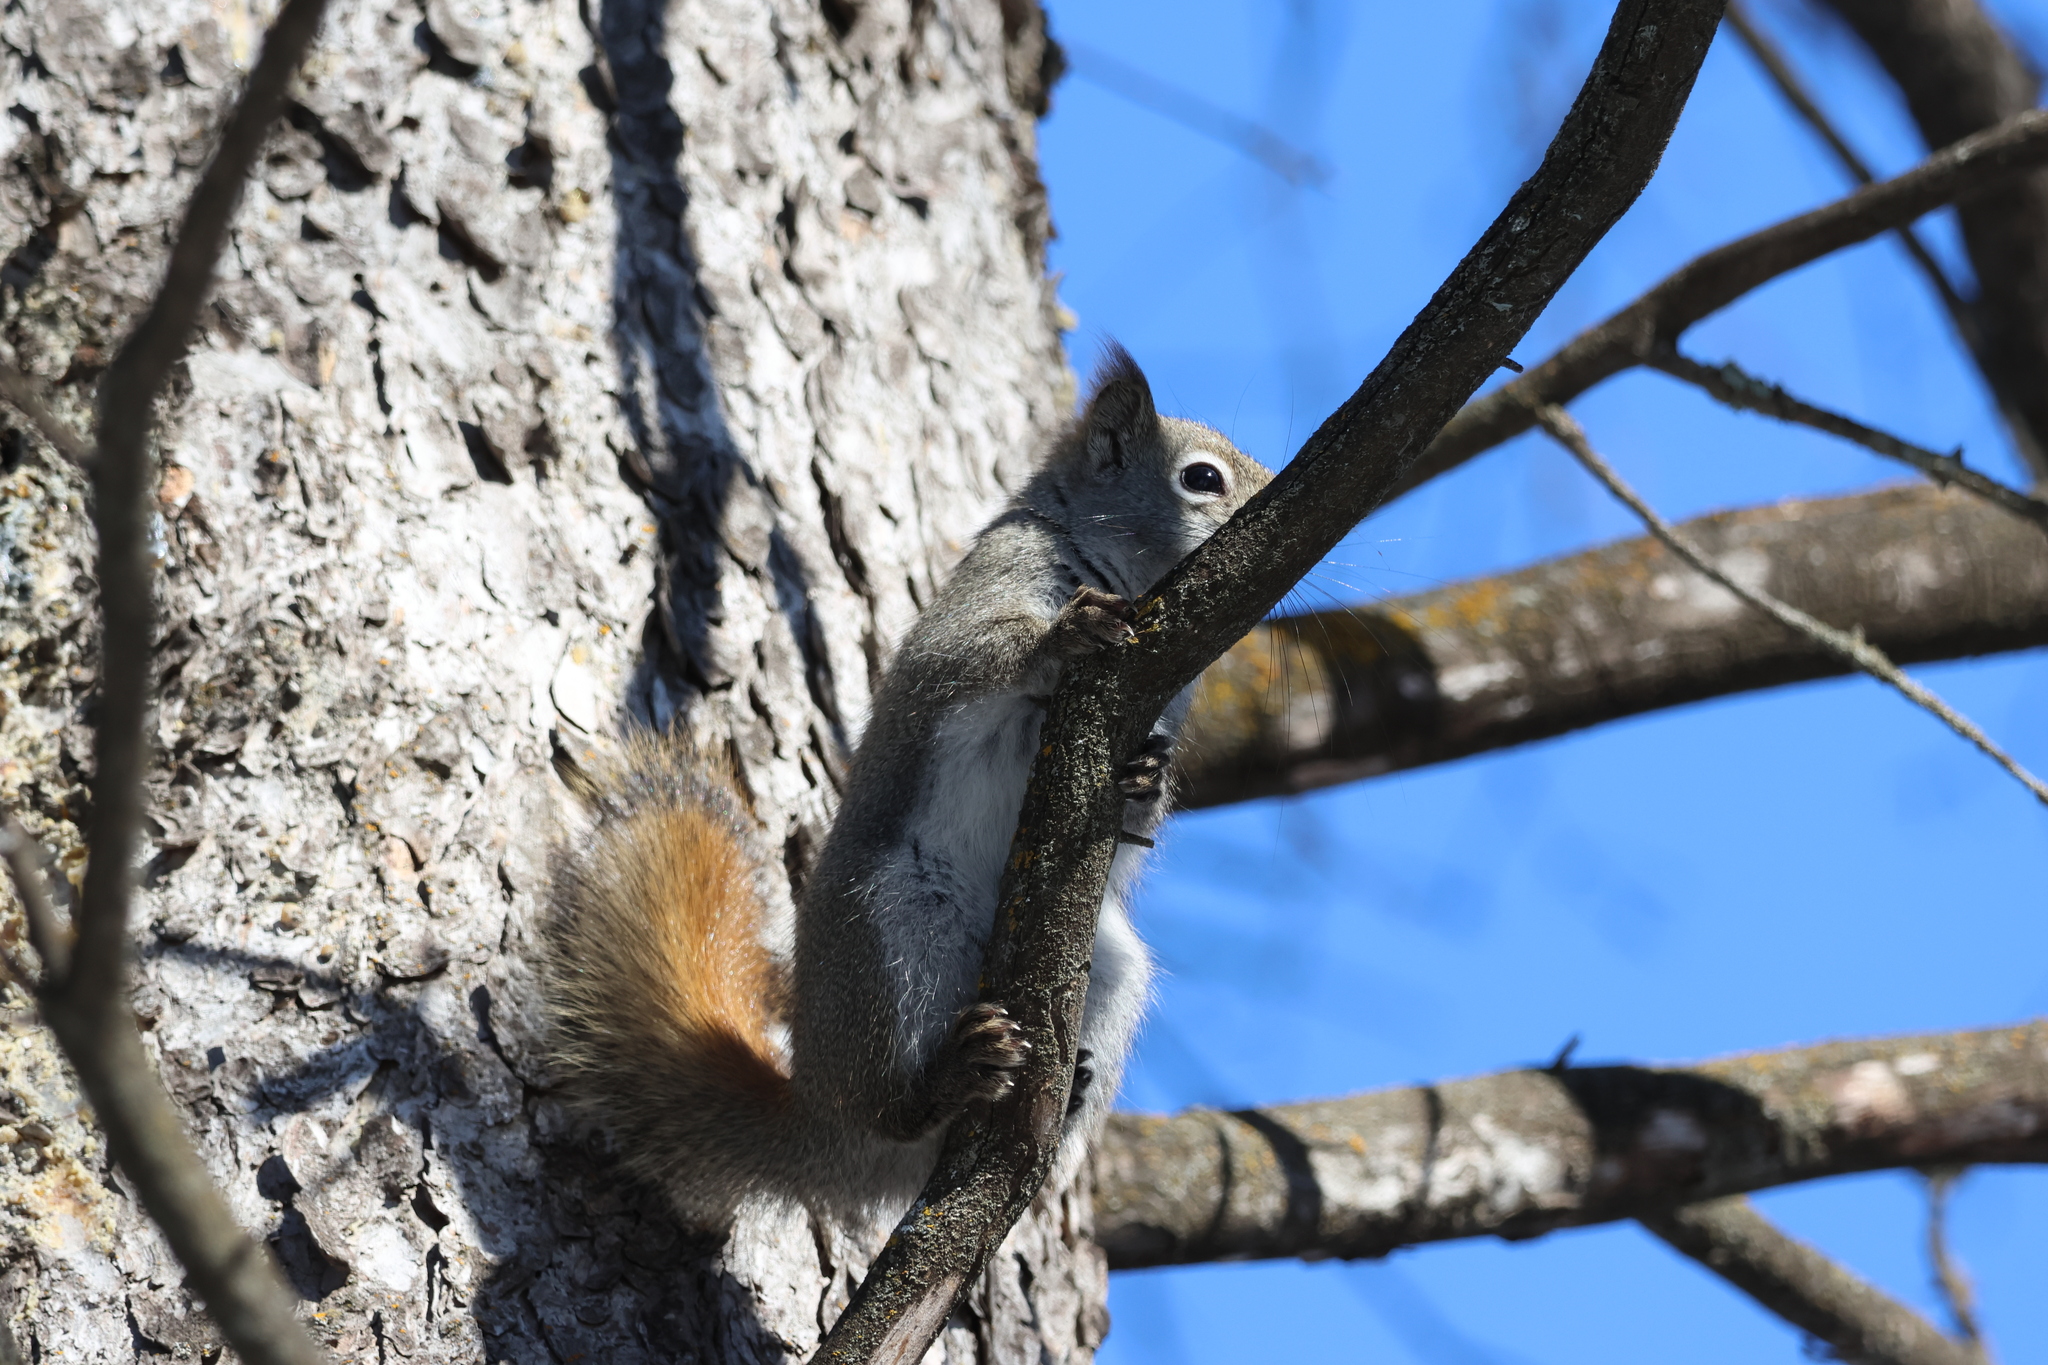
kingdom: Animalia
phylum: Chordata
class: Mammalia
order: Rodentia
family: Sciuridae
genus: Tamiasciurus
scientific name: Tamiasciurus hudsonicus
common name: Red squirrel
